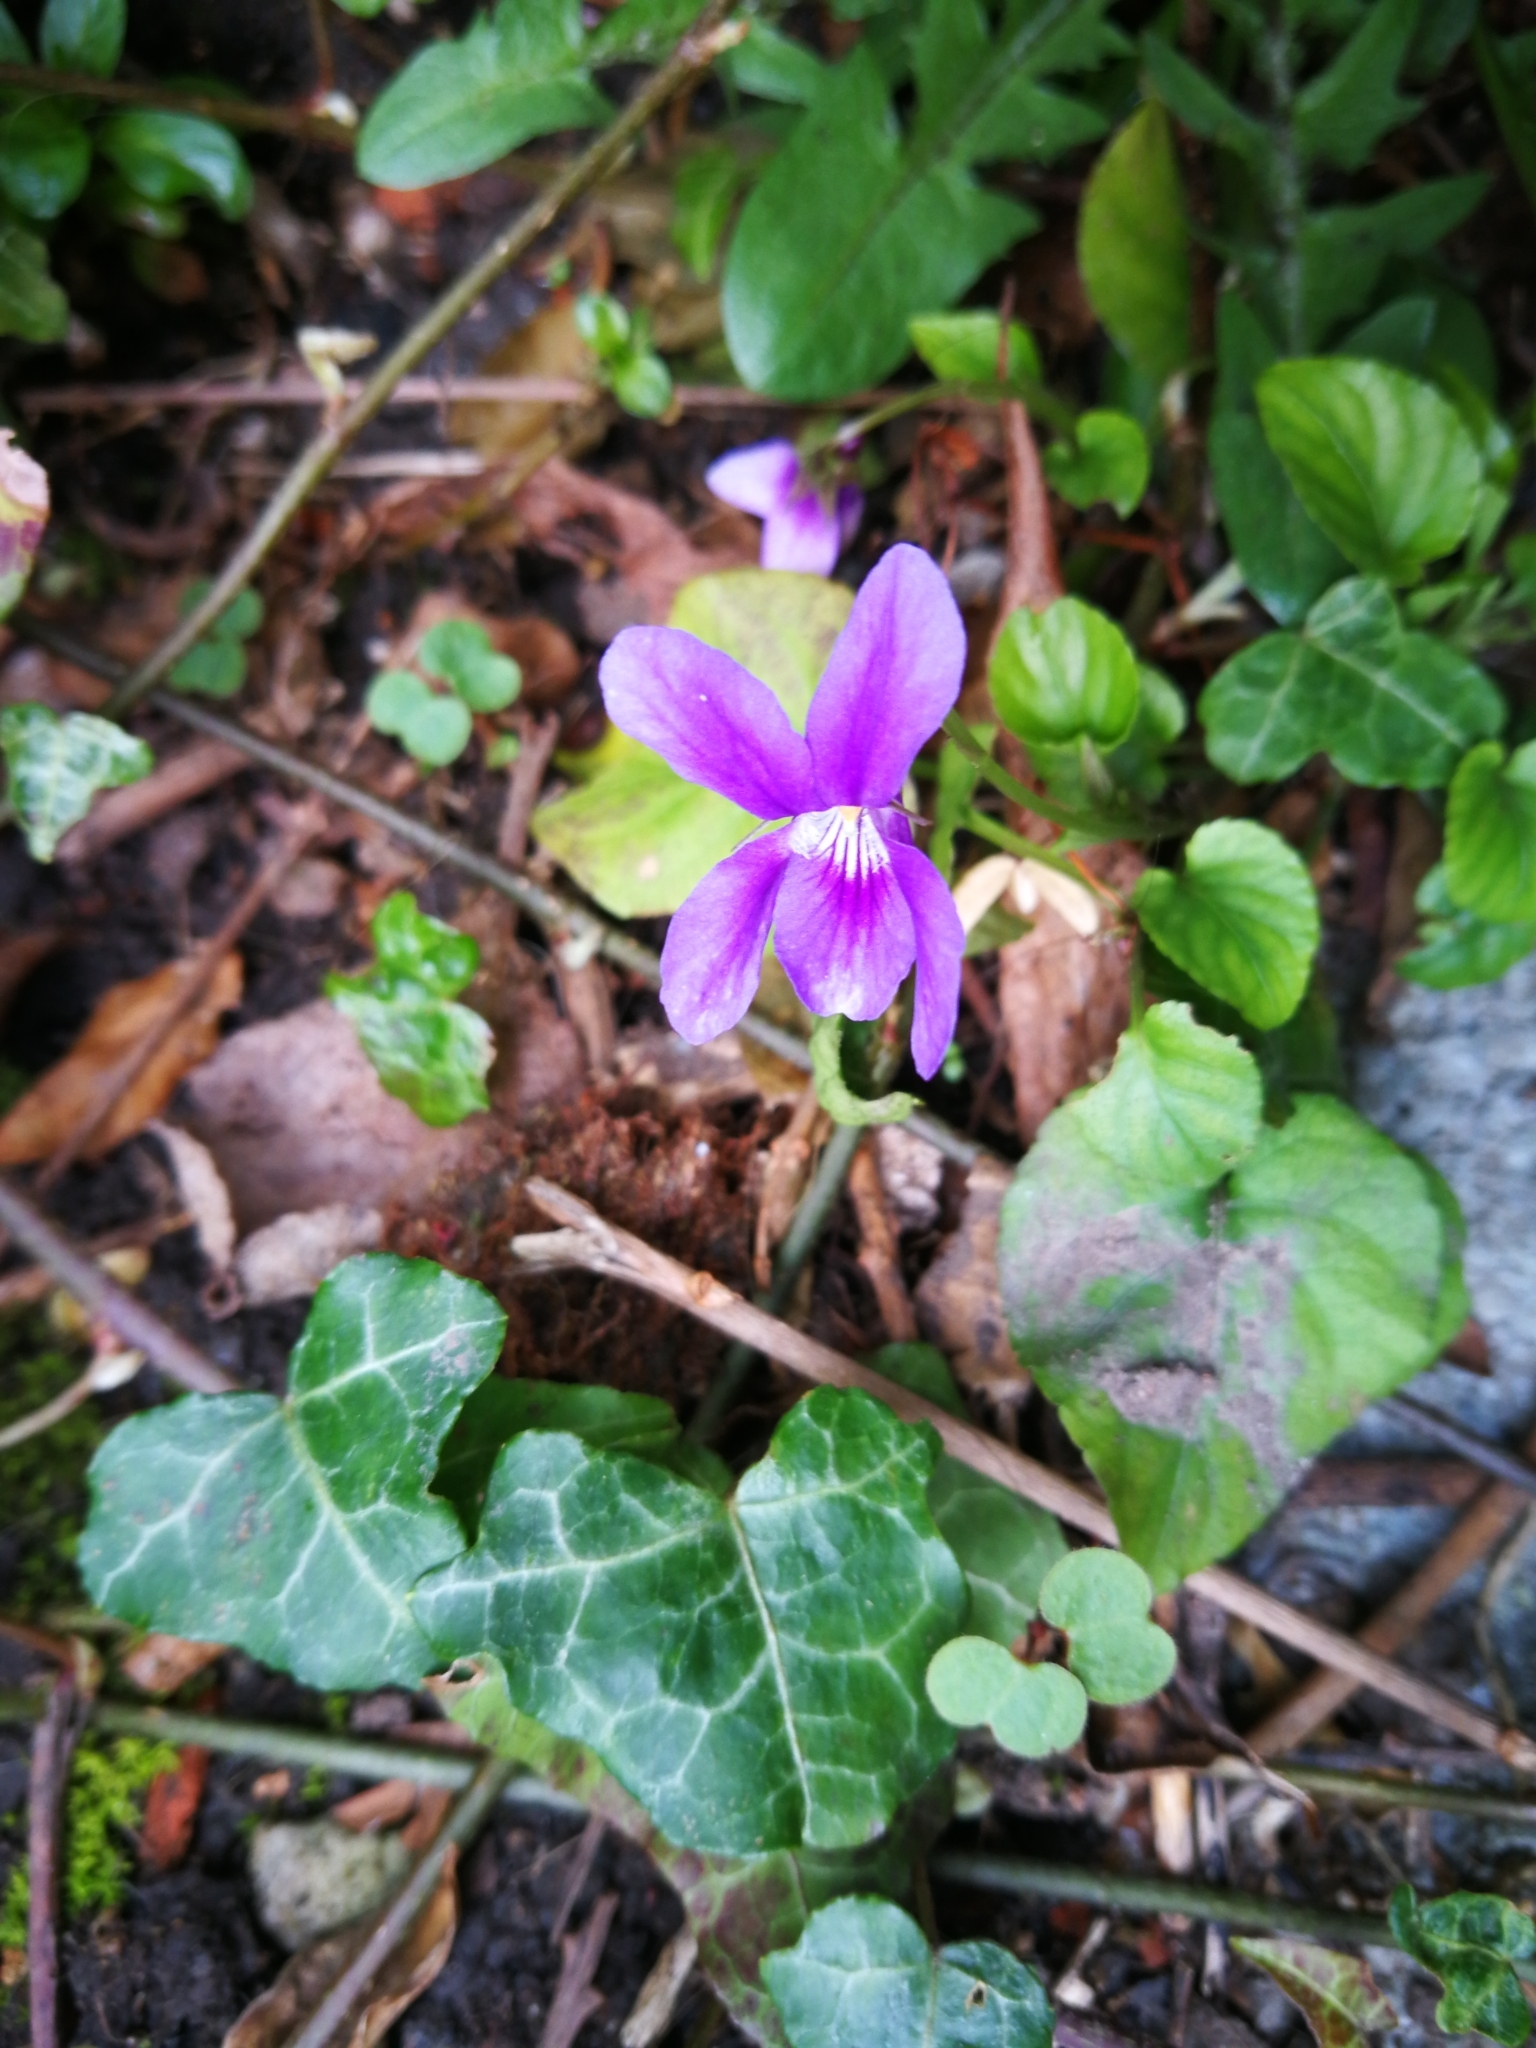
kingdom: Plantae
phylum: Tracheophyta
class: Magnoliopsida
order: Malpighiales
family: Violaceae
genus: Viola
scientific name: Viola reichenbachiana
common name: Early dog-violet
